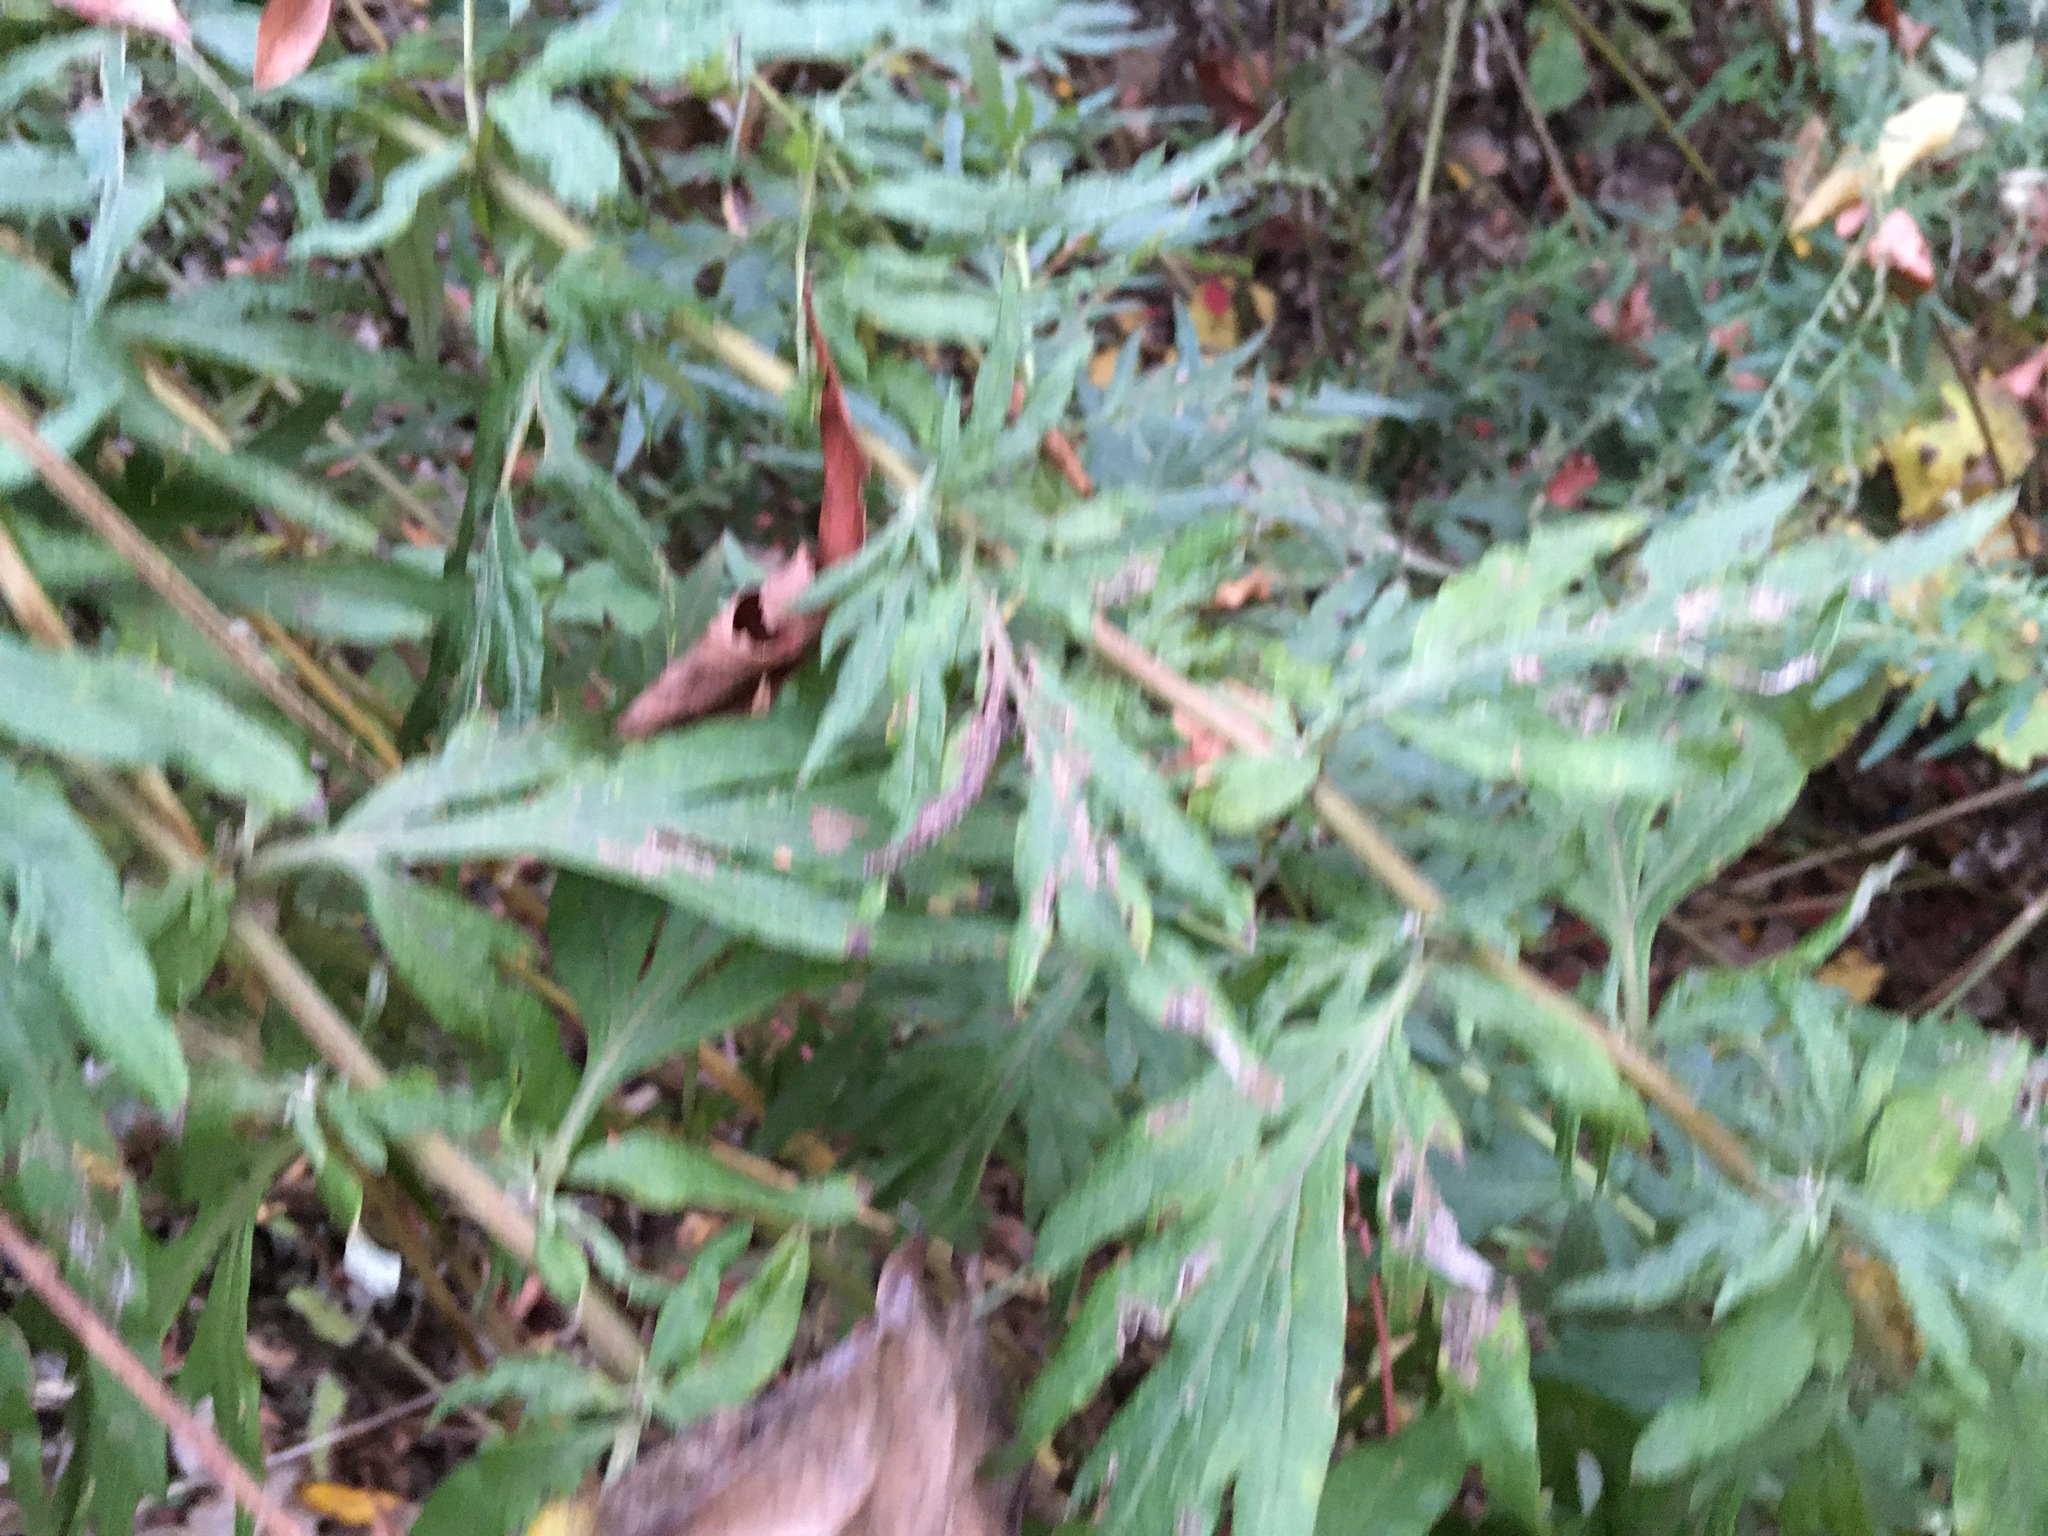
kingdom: Plantae
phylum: Tracheophyta
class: Magnoliopsida
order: Asterales
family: Asteraceae
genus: Artemisia
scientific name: Artemisia vulgaris
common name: Mugwort
